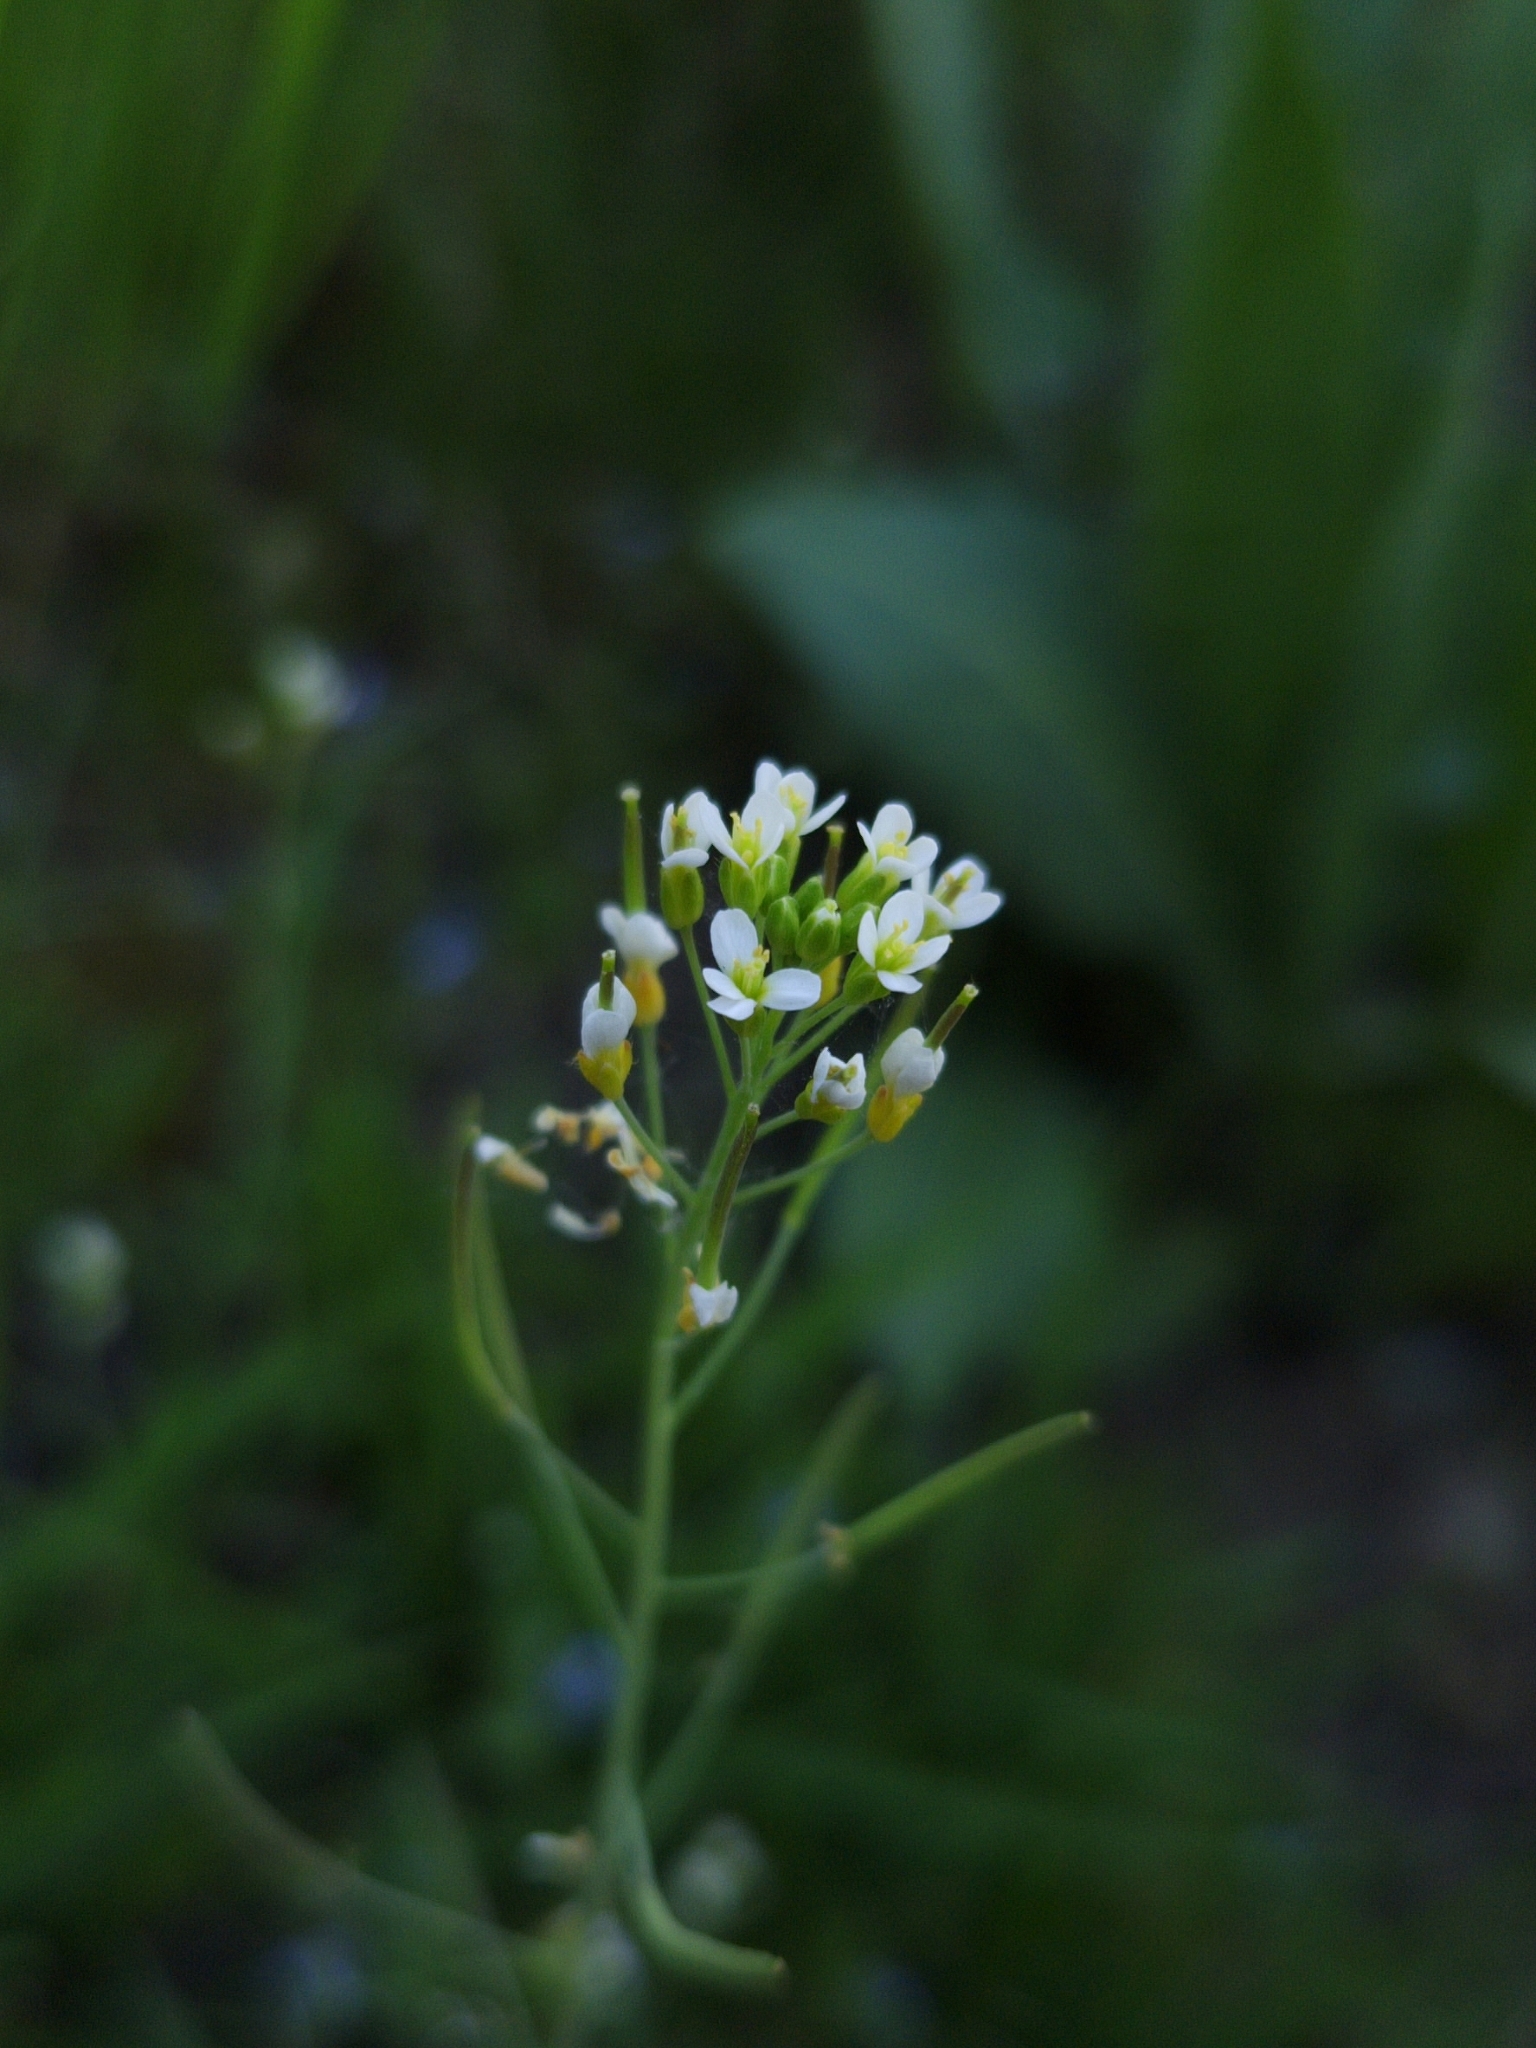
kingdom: Plantae
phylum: Tracheophyta
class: Magnoliopsida
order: Brassicales
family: Brassicaceae
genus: Arabidopsis
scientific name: Arabidopsis thaliana
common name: Thale cress
